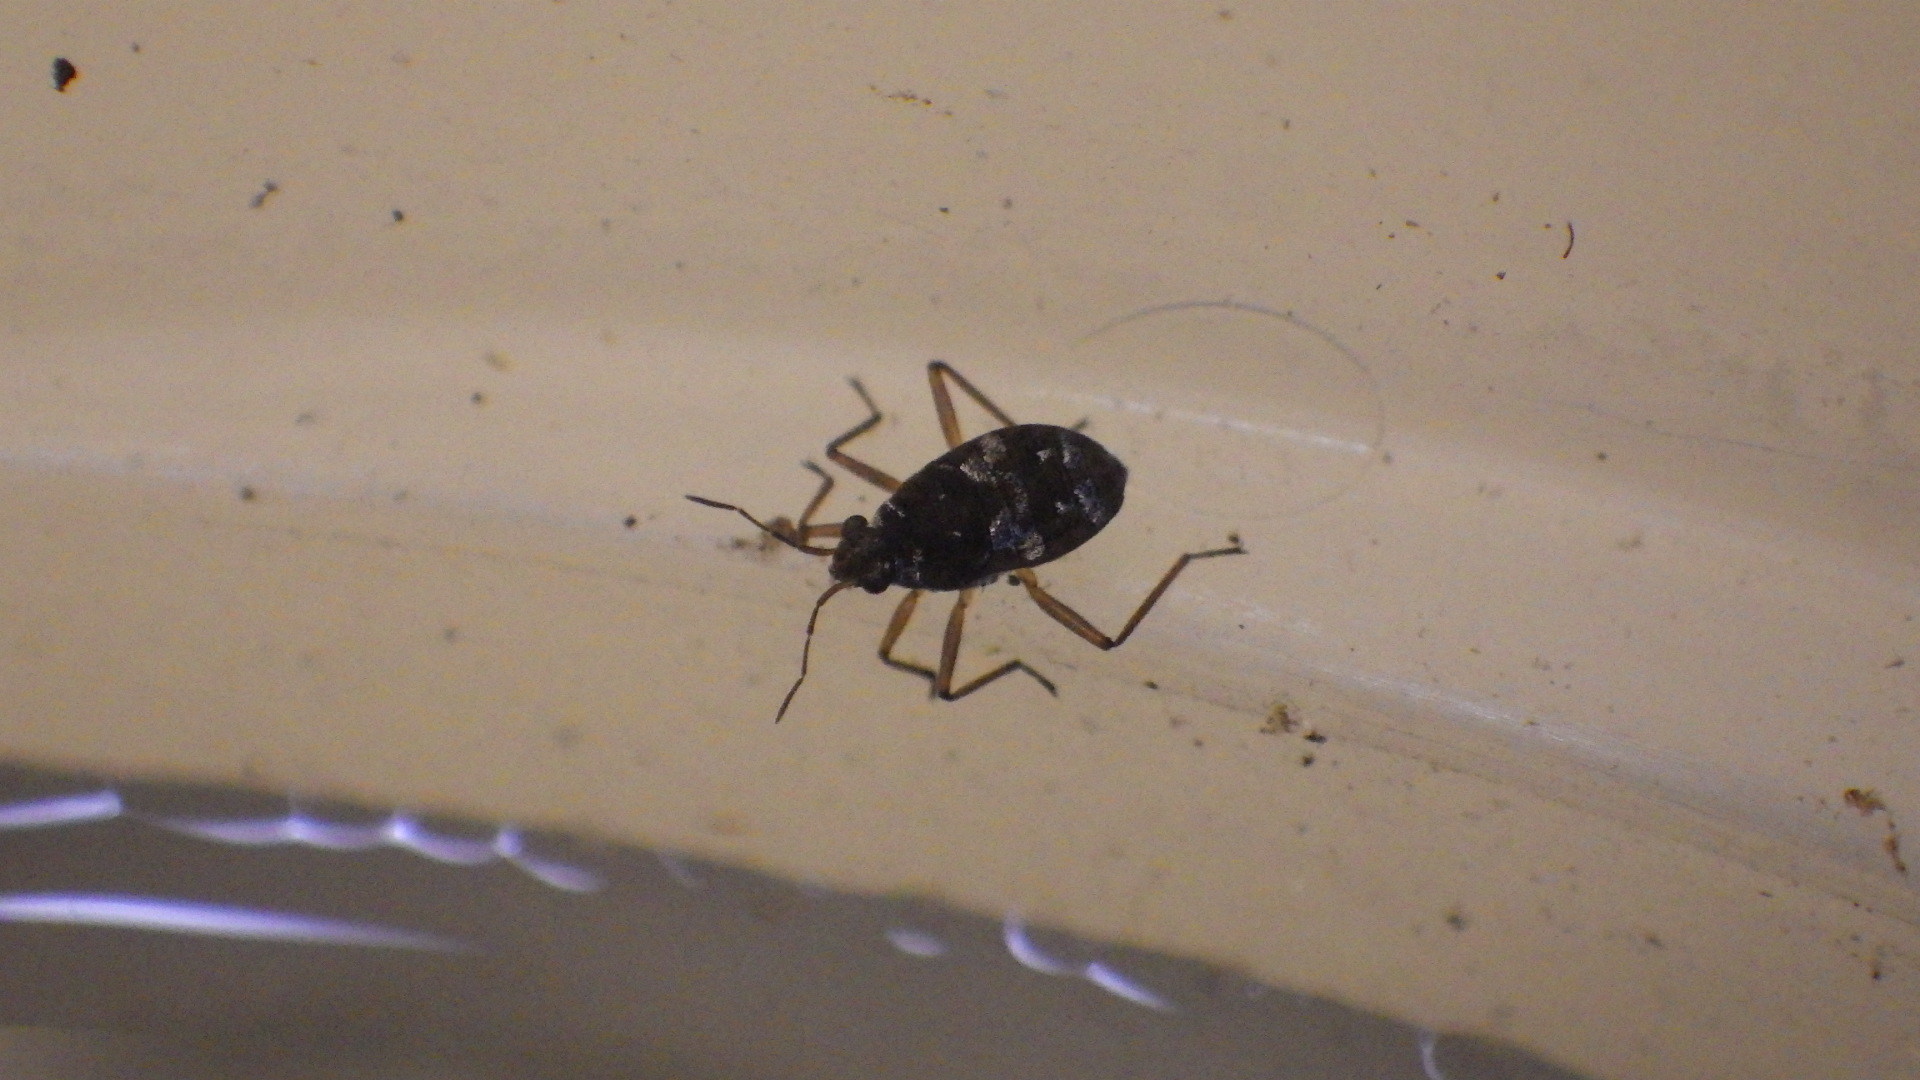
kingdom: Animalia
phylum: Arthropoda
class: Insecta
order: Hemiptera
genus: Kirkaldya
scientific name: Kirkaldya
